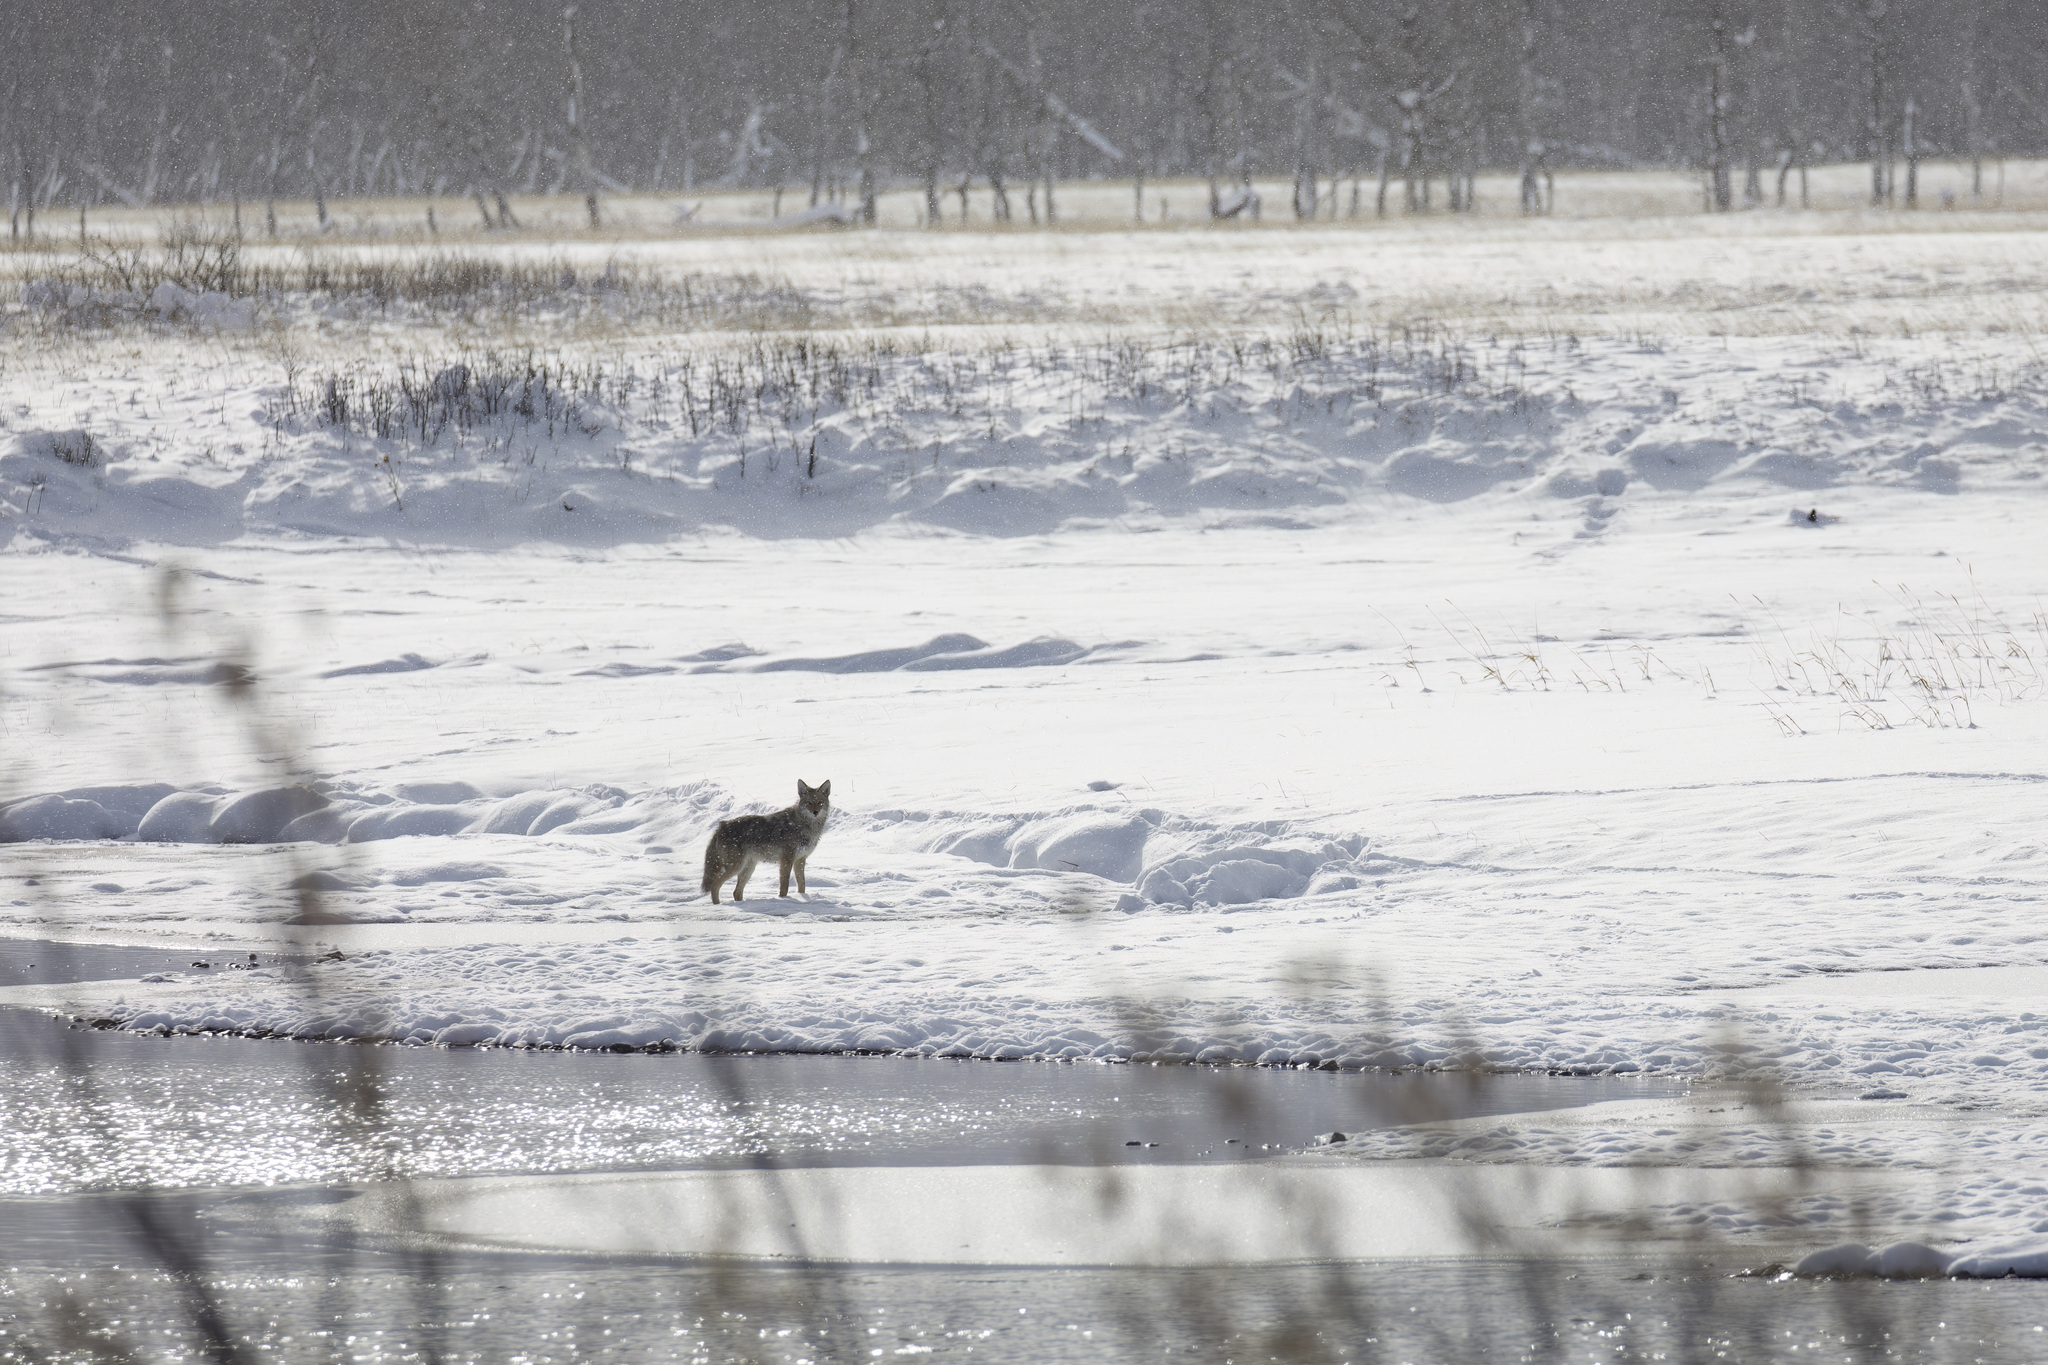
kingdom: Animalia
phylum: Chordata
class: Mammalia
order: Carnivora
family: Canidae
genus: Canis
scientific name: Canis latrans
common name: Coyote
